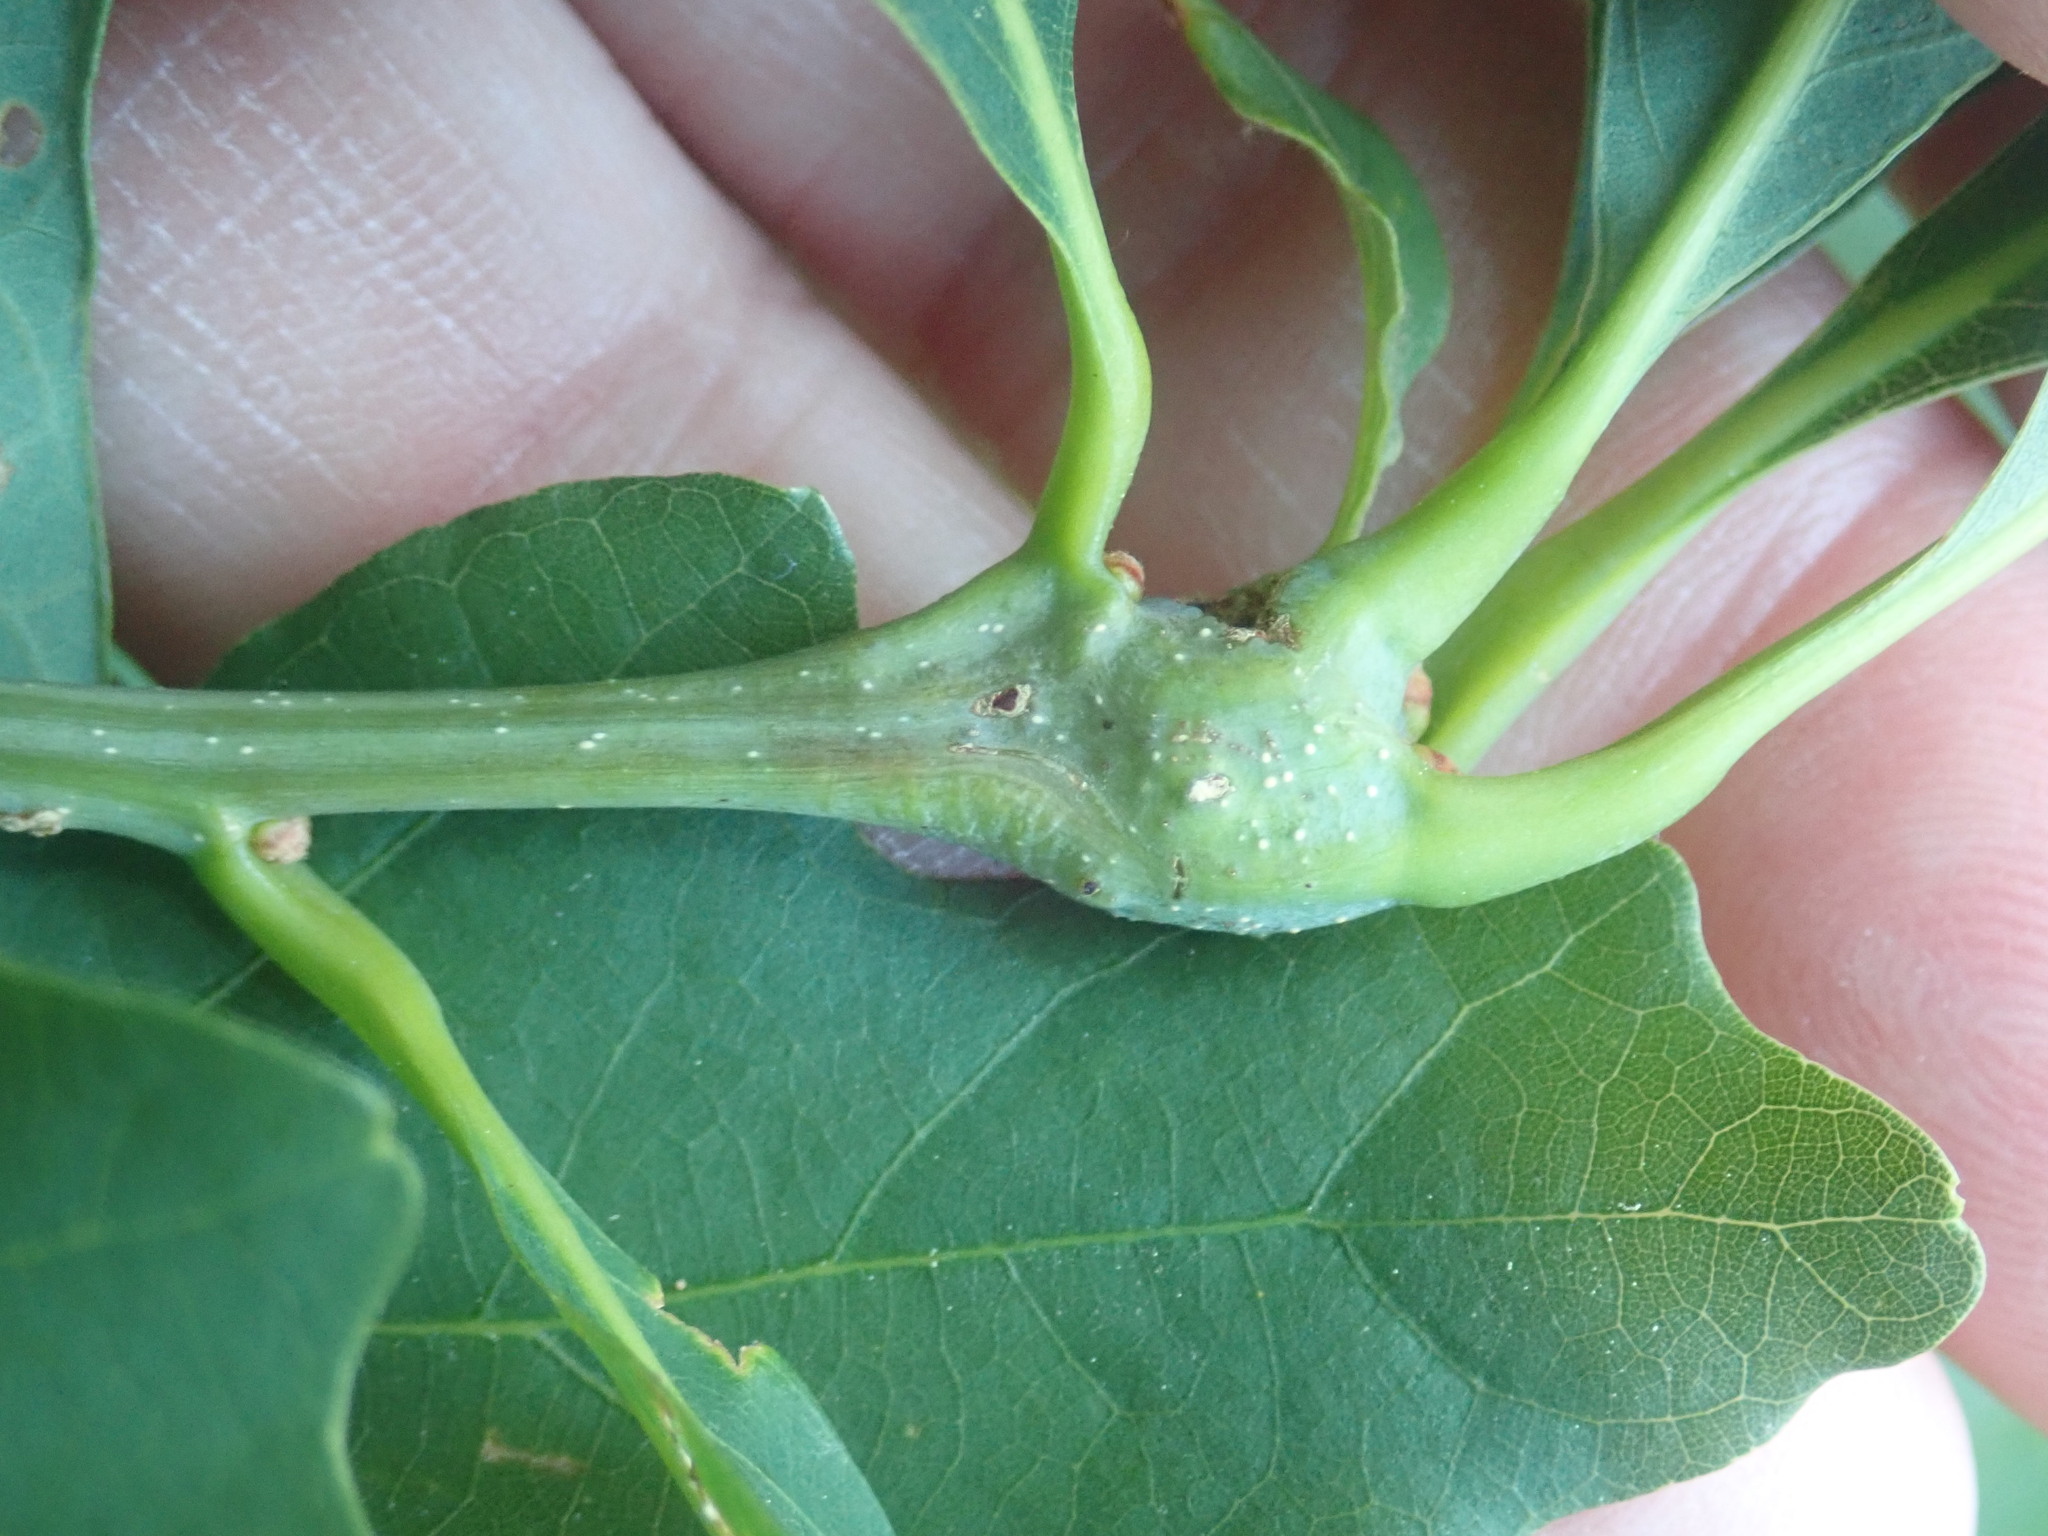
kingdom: Animalia
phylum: Arthropoda
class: Insecta
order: Hymenoptera
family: Cynipidae
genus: Callirhytis
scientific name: Callirhytis clavula
